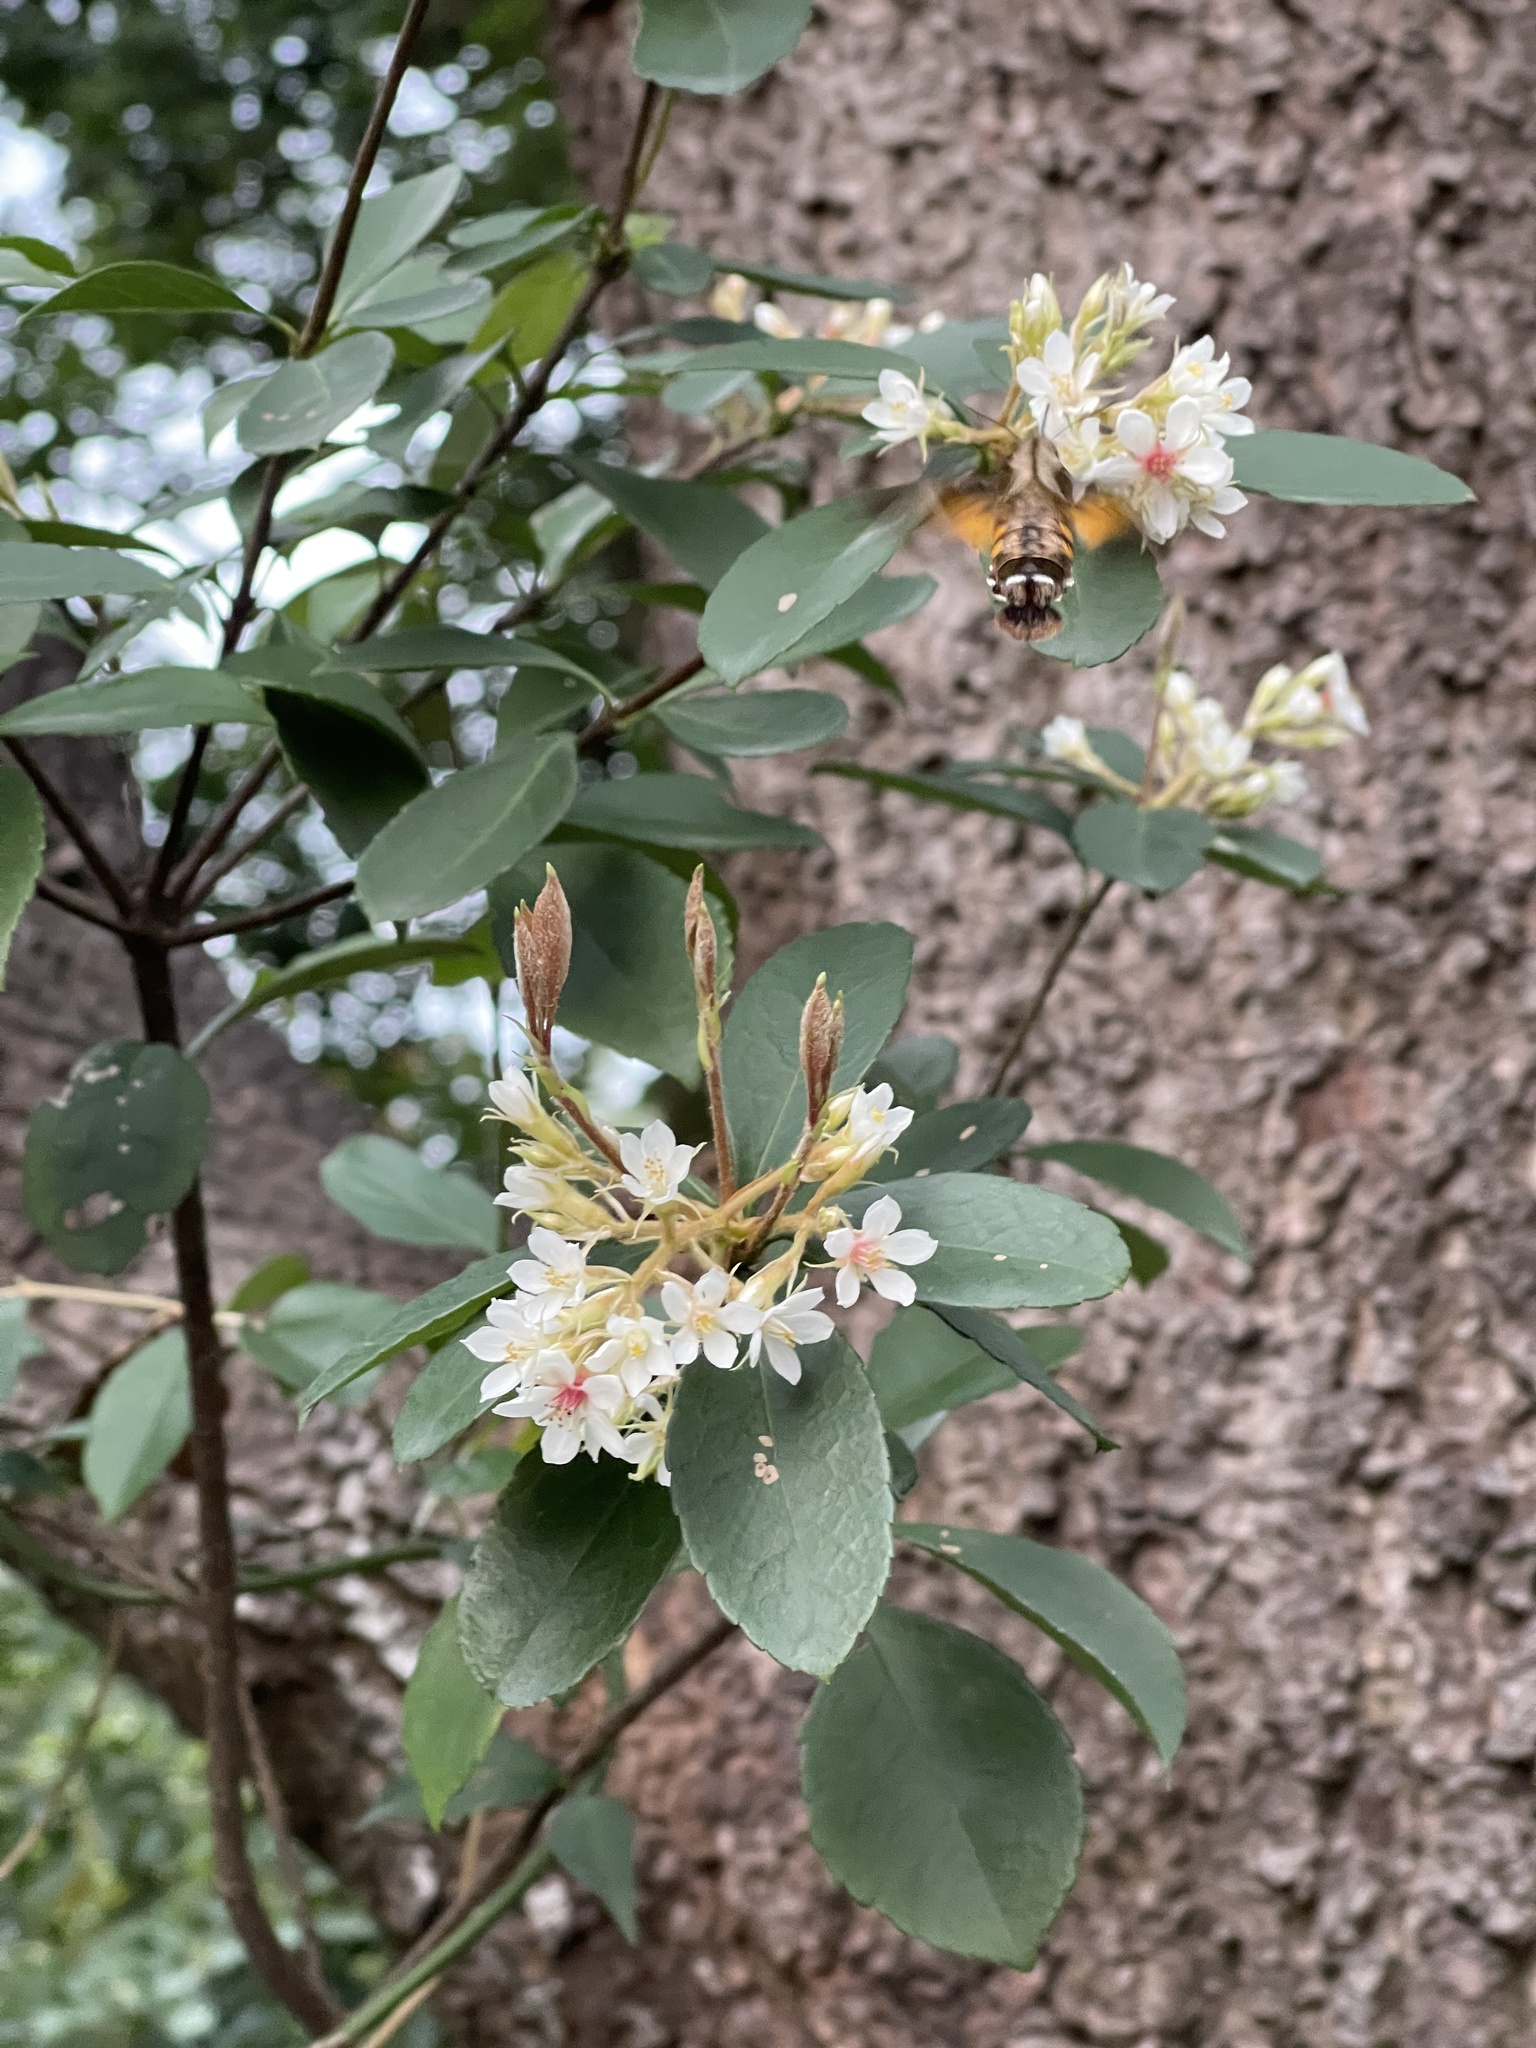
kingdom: Plantae
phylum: Tracheophyta
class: Magnoliopsida
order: Rosales
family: Rosaceae
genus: Rhaphiolepis
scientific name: Rhaphiolepis indica
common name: India-hawthorn
